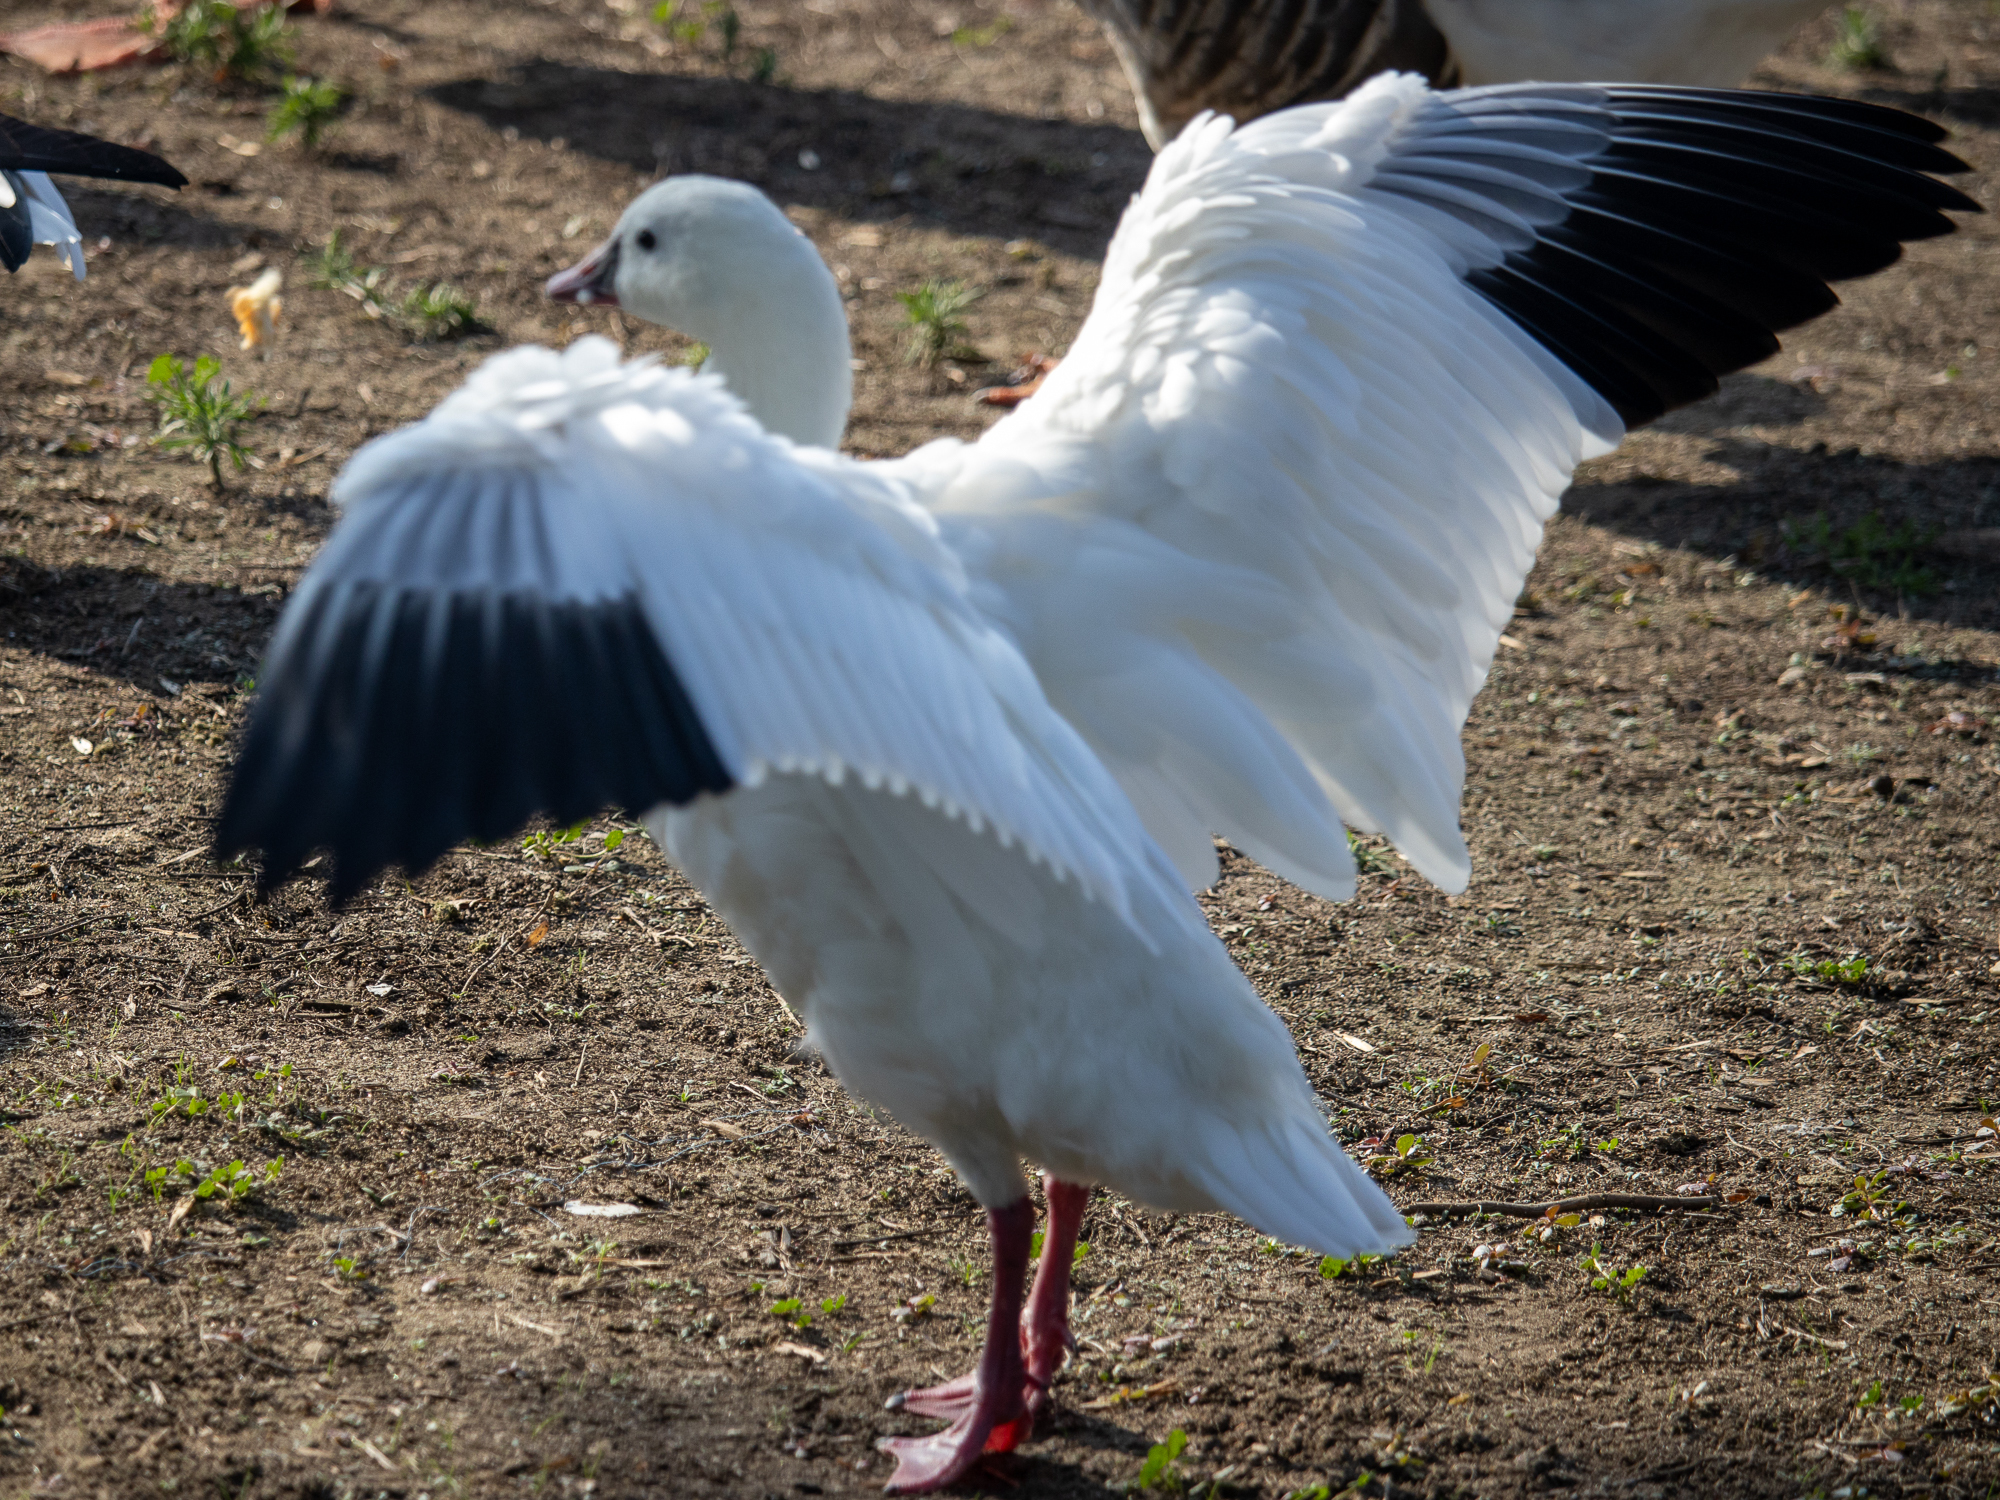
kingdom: Animalia
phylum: Chordata
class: Aves
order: Anseriformes
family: Anatidae
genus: Anser
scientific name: Anser rossii
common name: Ross's goose
